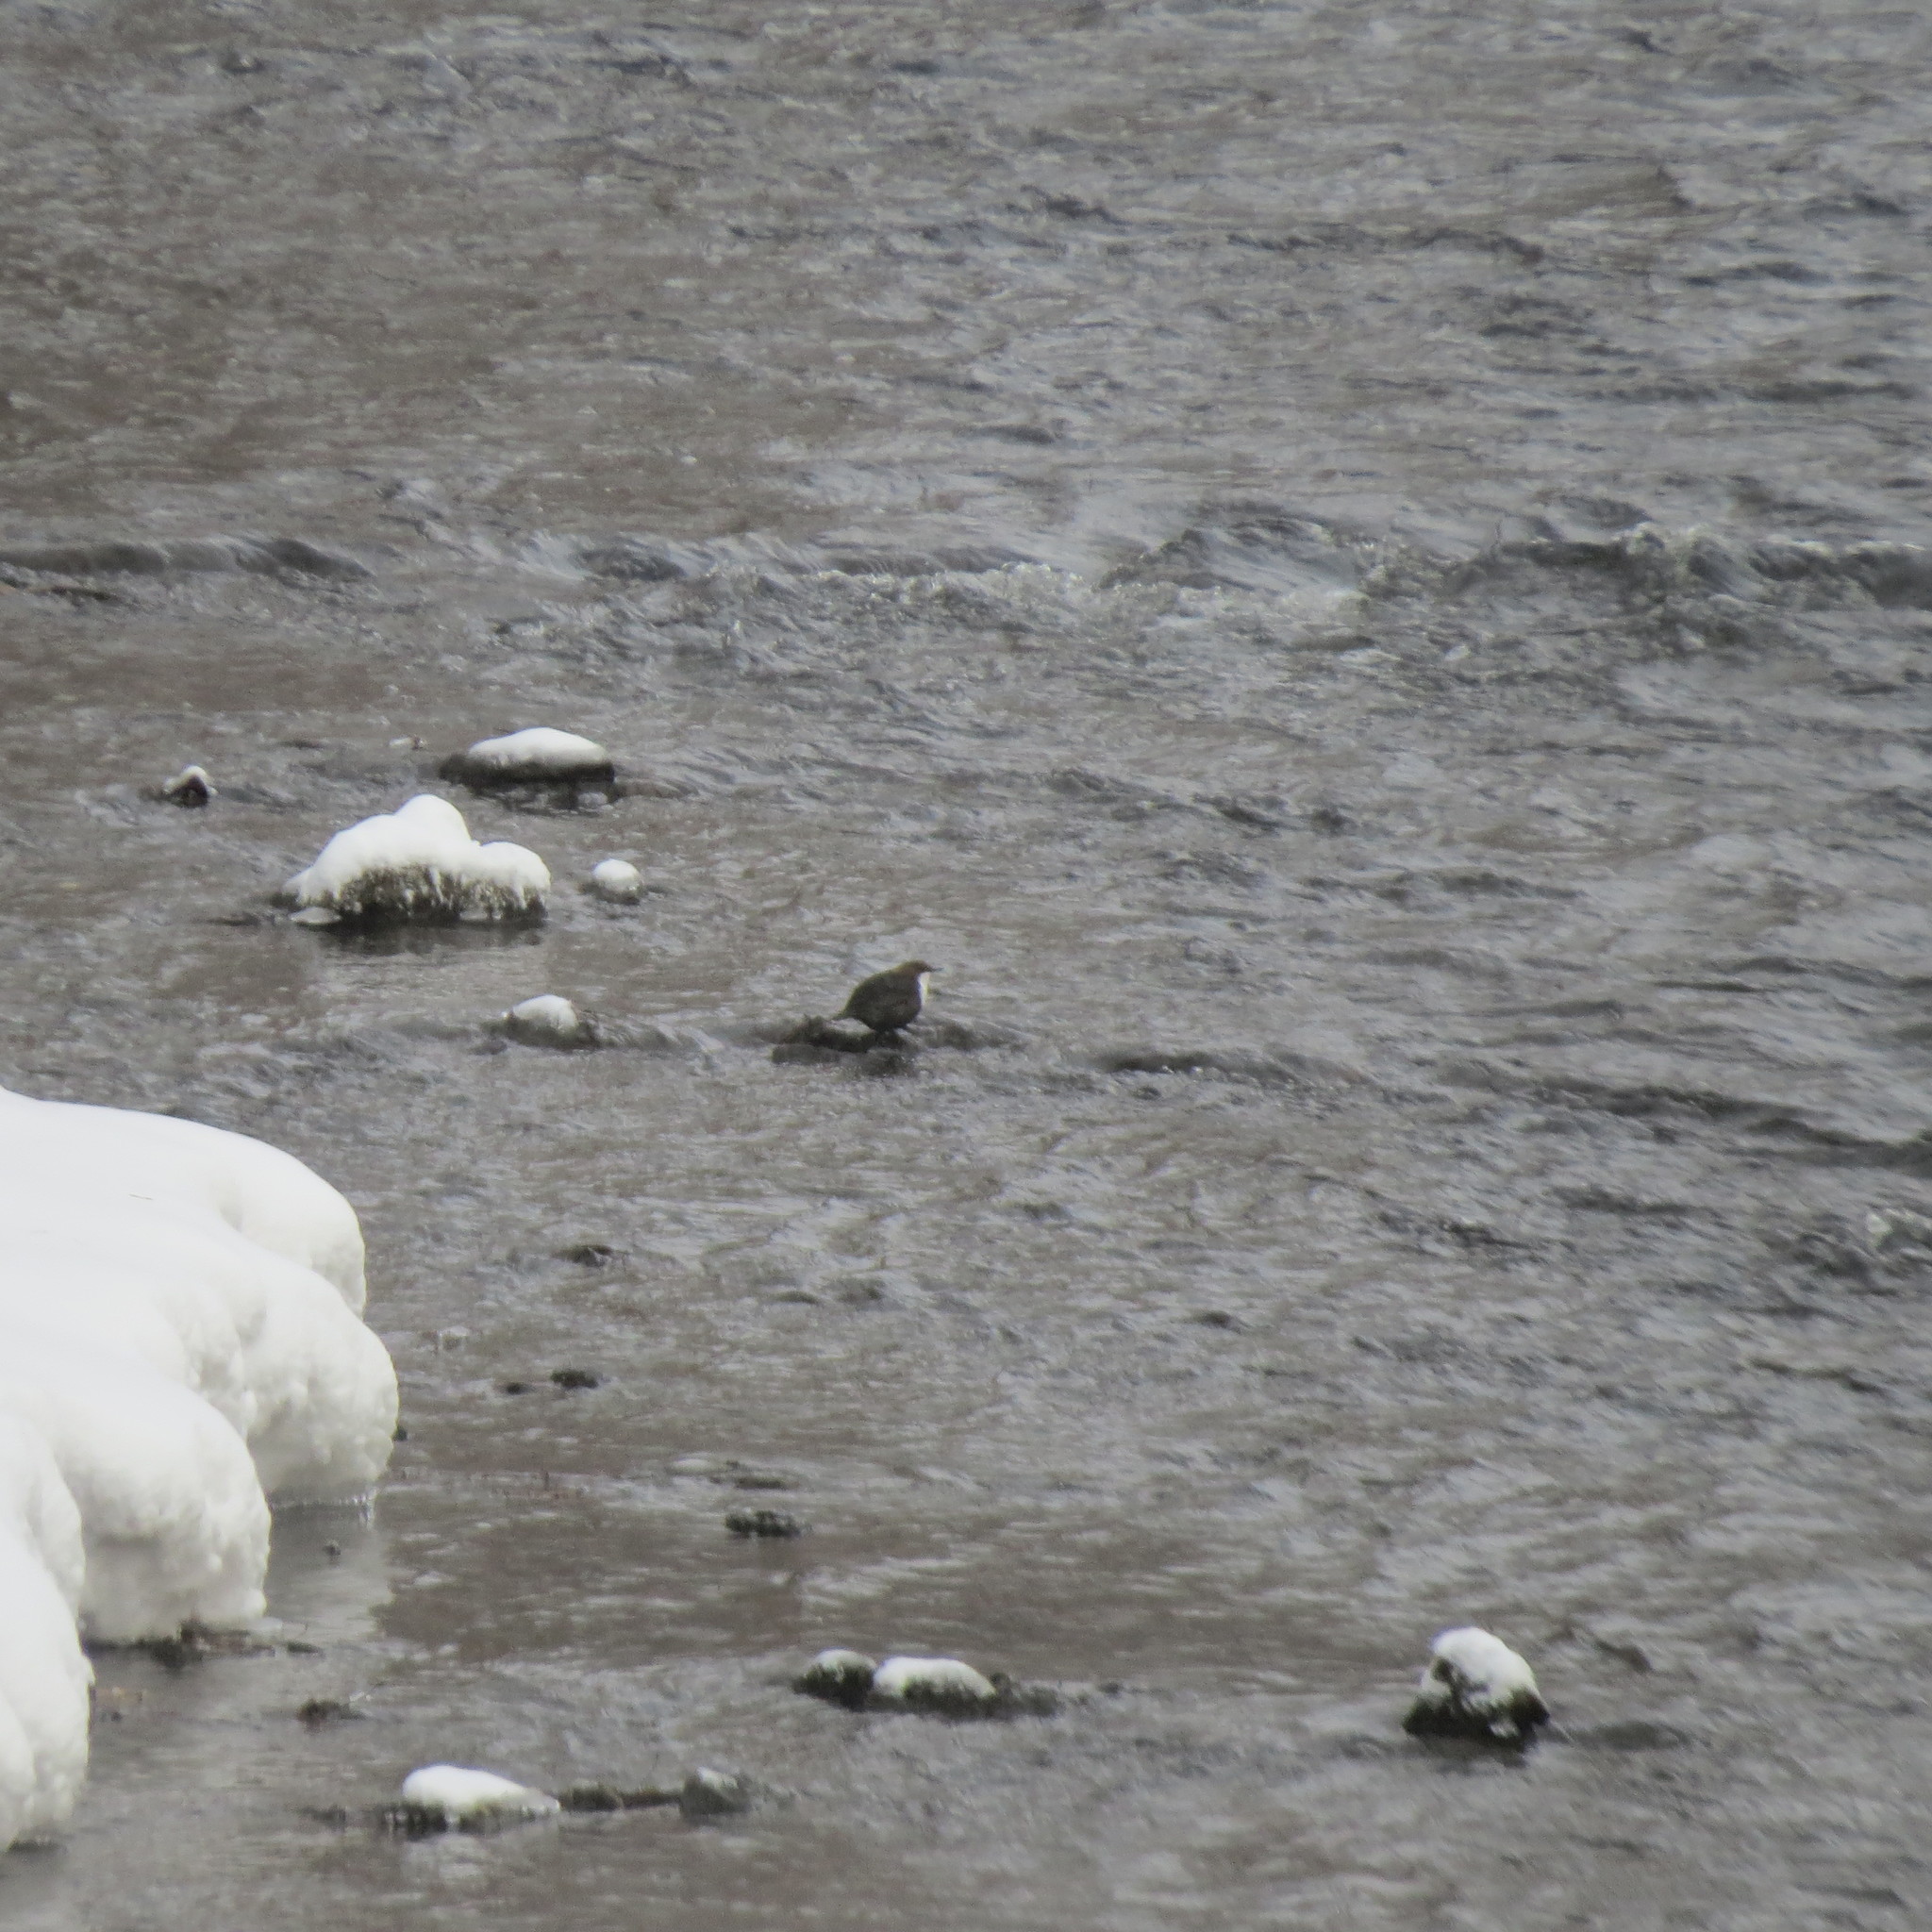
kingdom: Animalia
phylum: Chordata
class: Aves
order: Passeriformes
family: Cinclidae
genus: Cinclus
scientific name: Cinclus cinclus
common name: White-throated dipper
